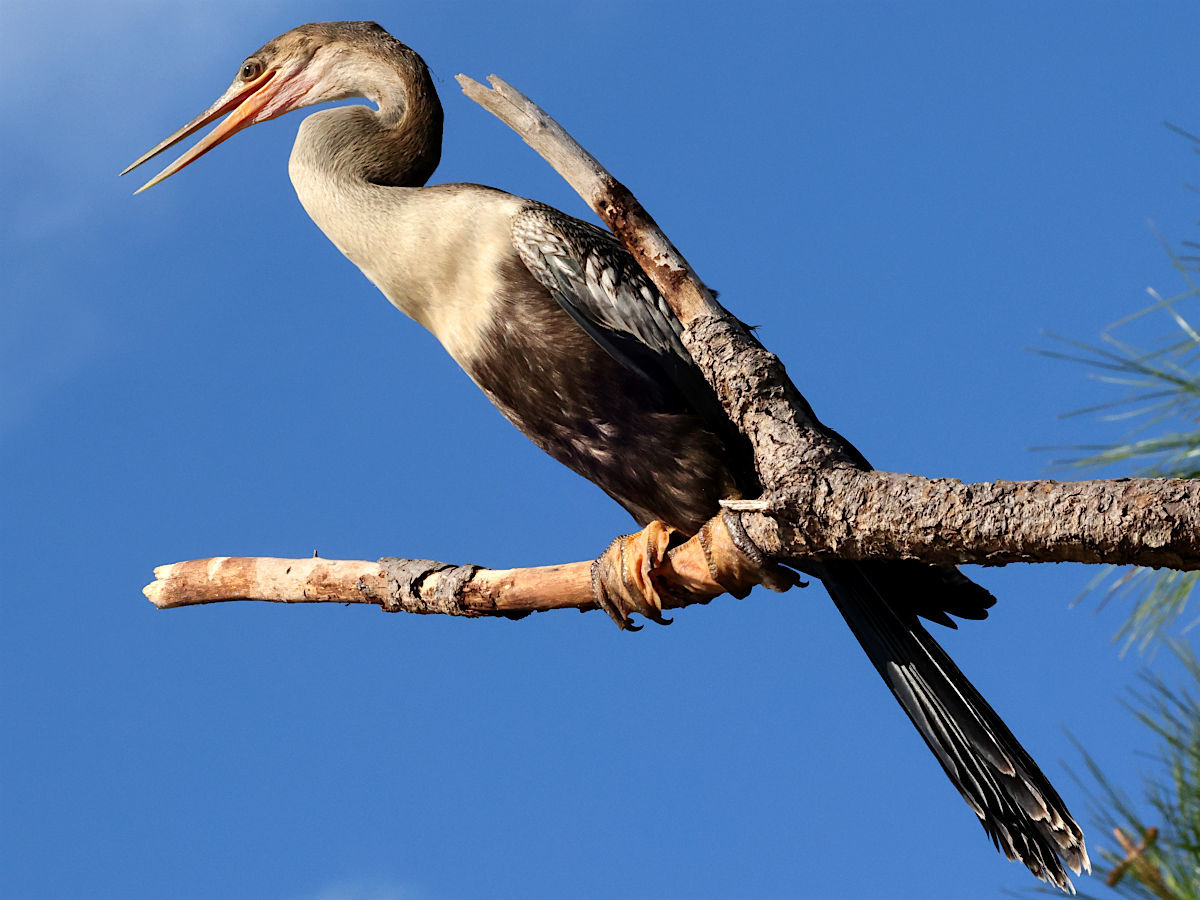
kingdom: Animalia
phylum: Chordata
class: Aves
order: Suliformes
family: Anhingidae
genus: Anhinga
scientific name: Anhinga anhinga
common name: Anhinga
